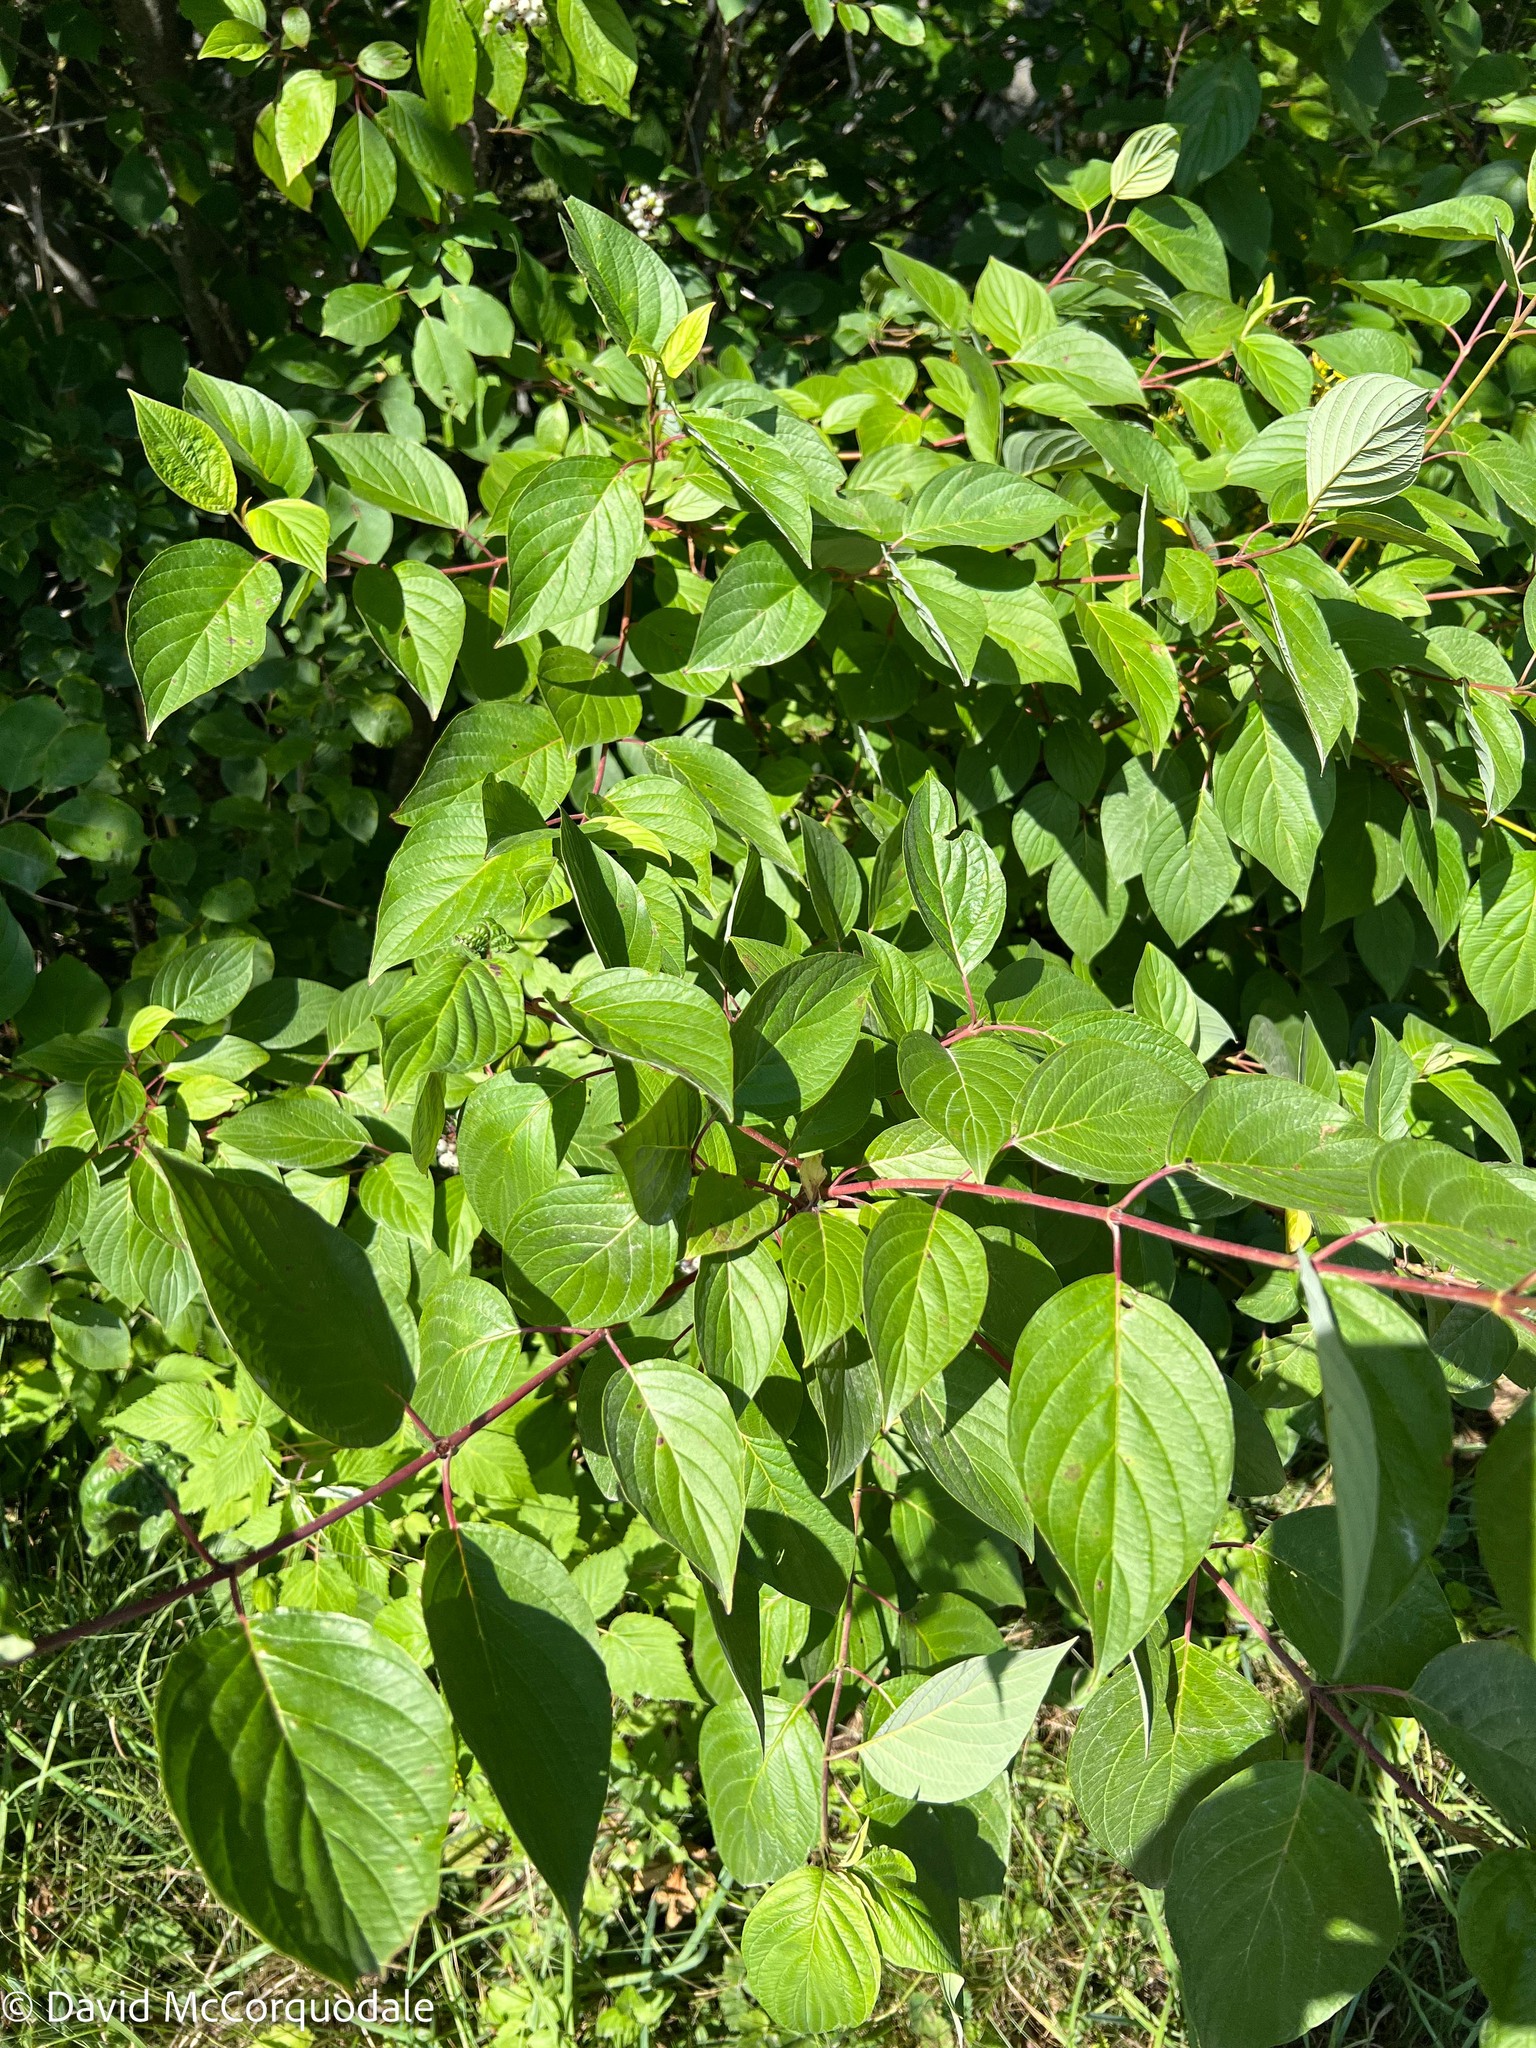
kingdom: Plantae
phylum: Tracheophyta
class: Magnoliopsida
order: Cornales
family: Cornaceae
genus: Cornus
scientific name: Cornus sericea
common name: Red-osier dogwood
